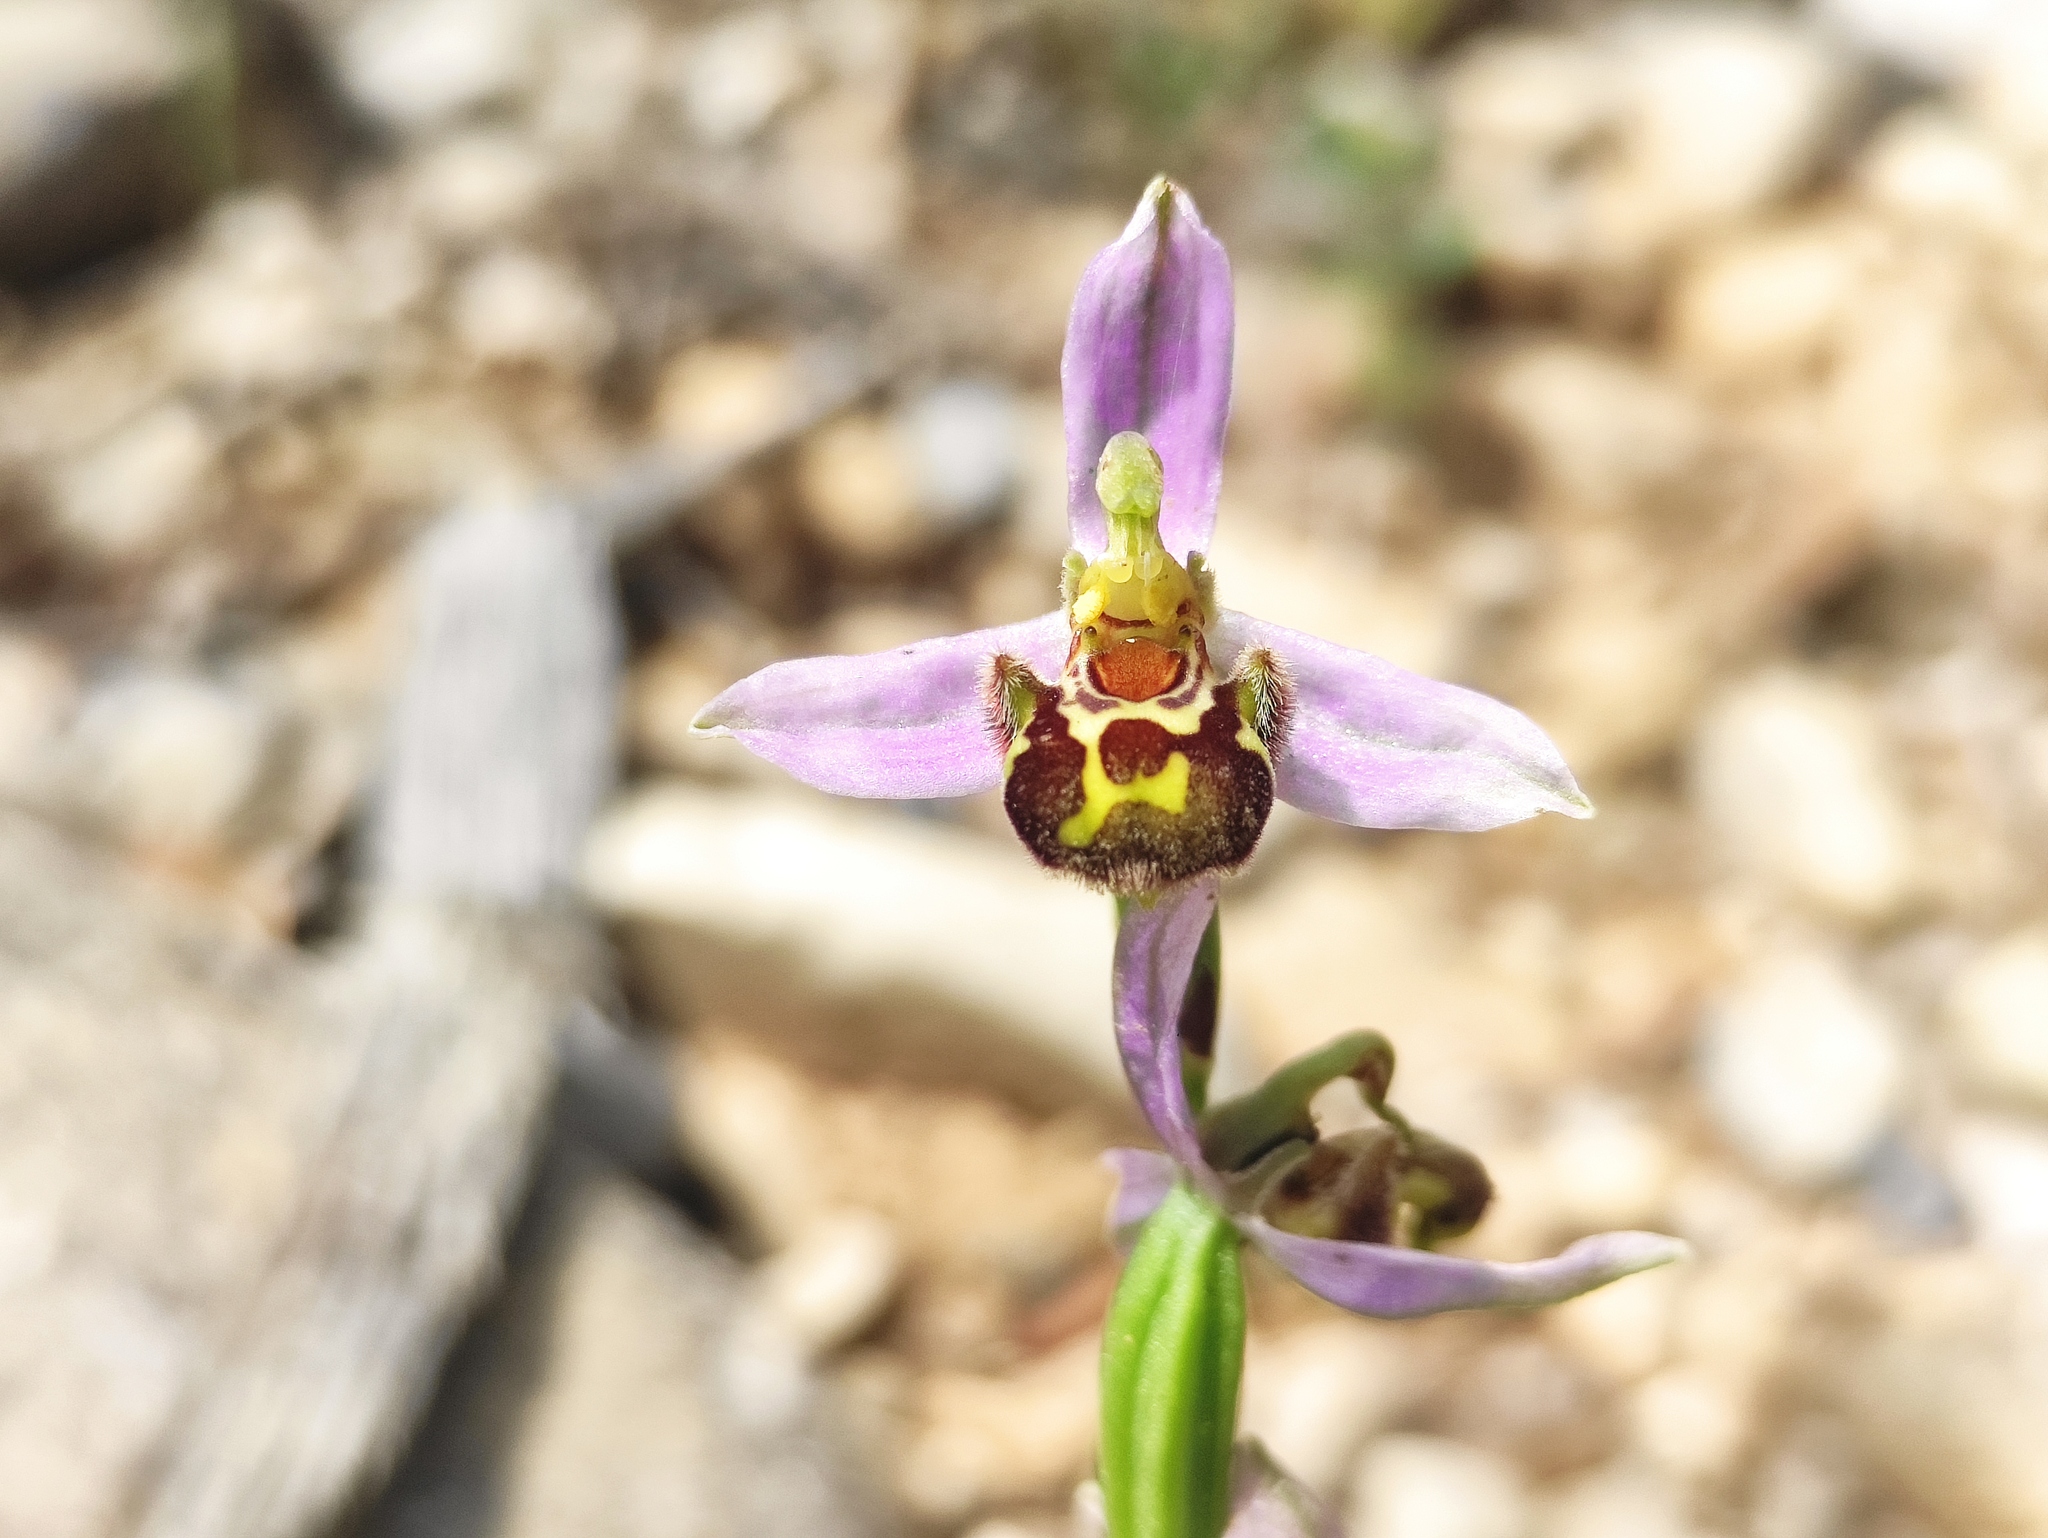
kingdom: Plantae
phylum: Tracheophyta
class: Liliopsida
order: Asparagales
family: Orchidaceae
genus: Ophrys
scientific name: Ophrys apifera
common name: Bee orchid
